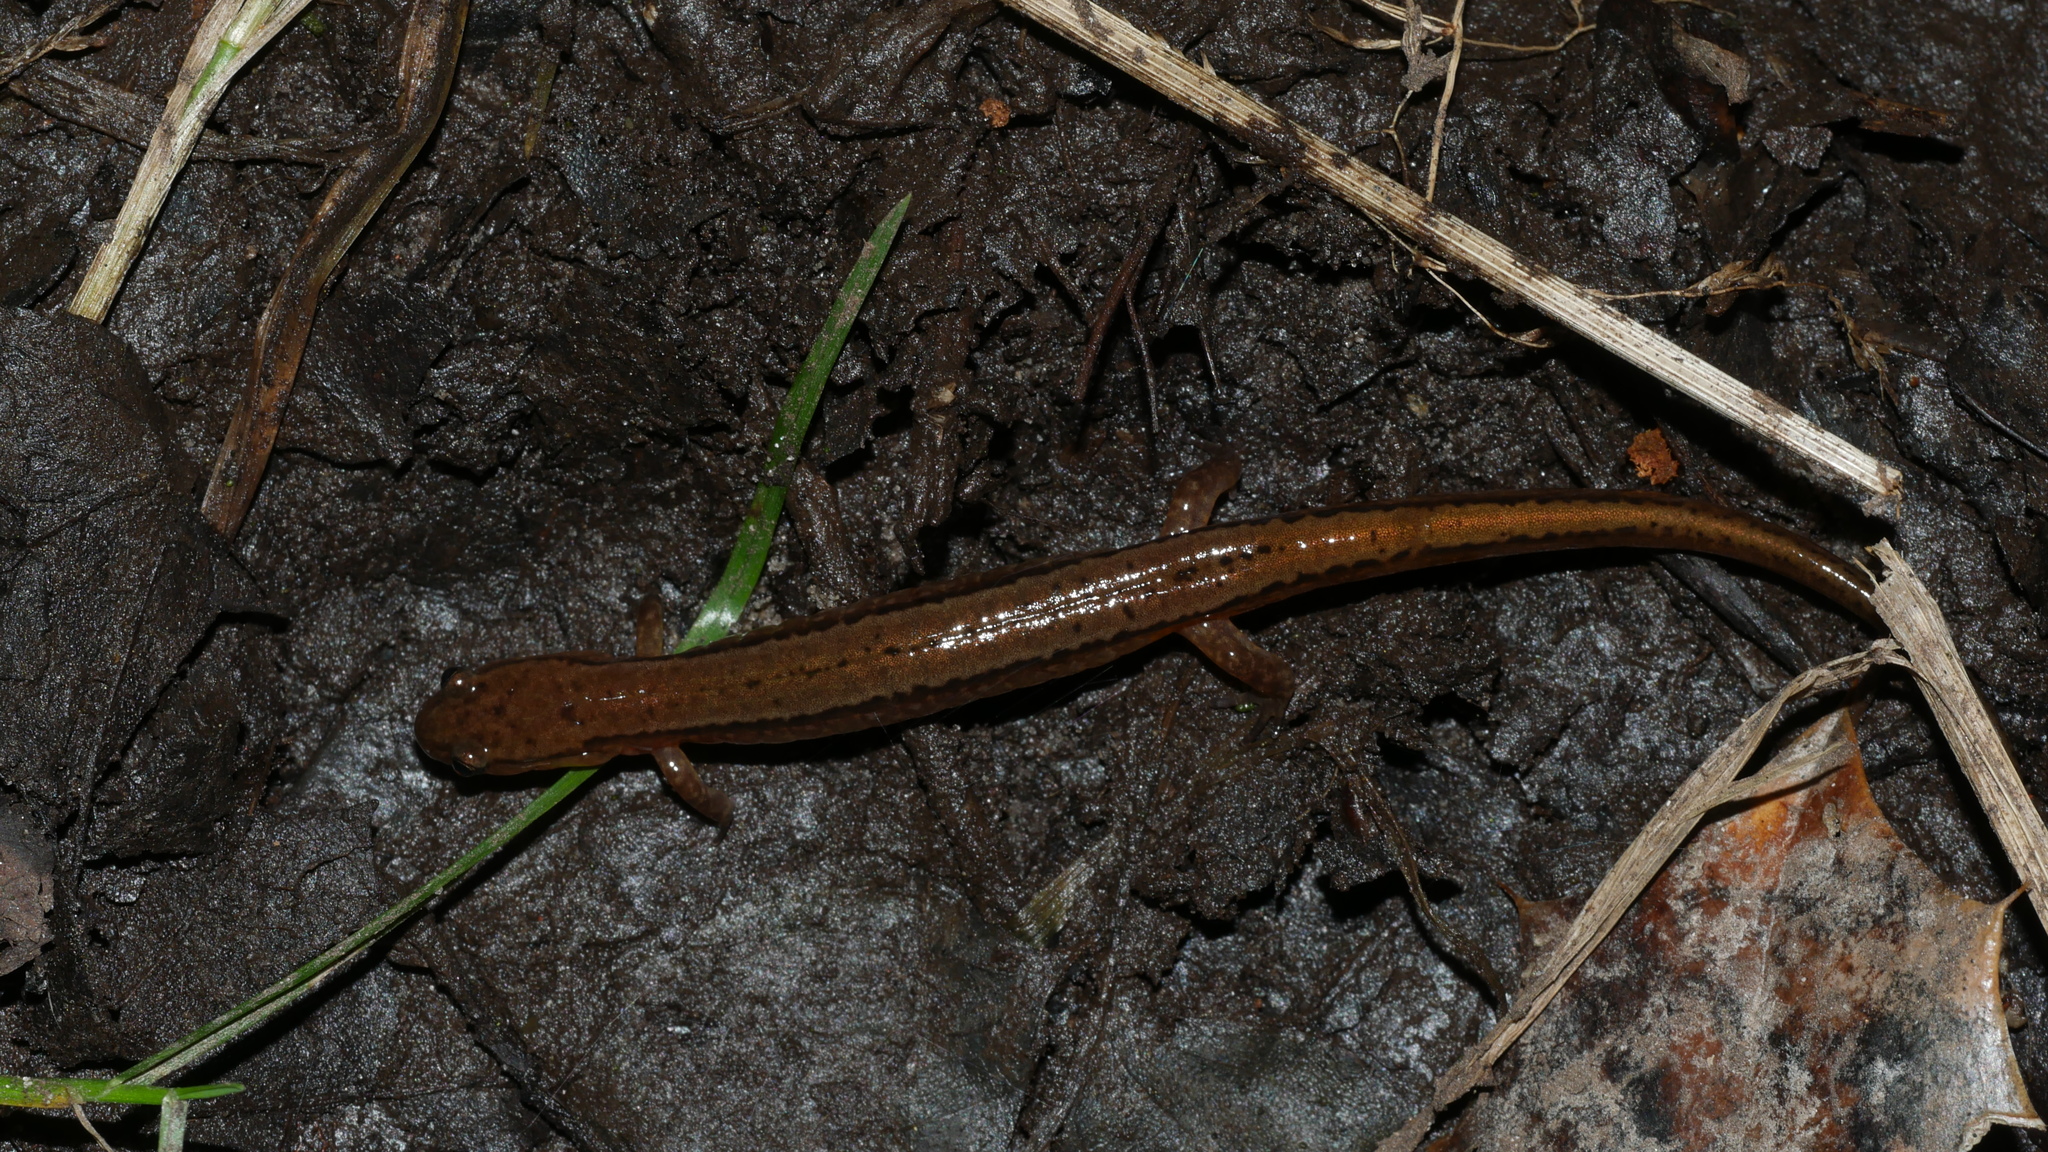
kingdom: Animalia
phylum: Chordata
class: Amphibia
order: Caudata
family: Plethodontidae
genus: Eurycea
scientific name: Eurycea cirrigera
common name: Southern two-lined salamander
